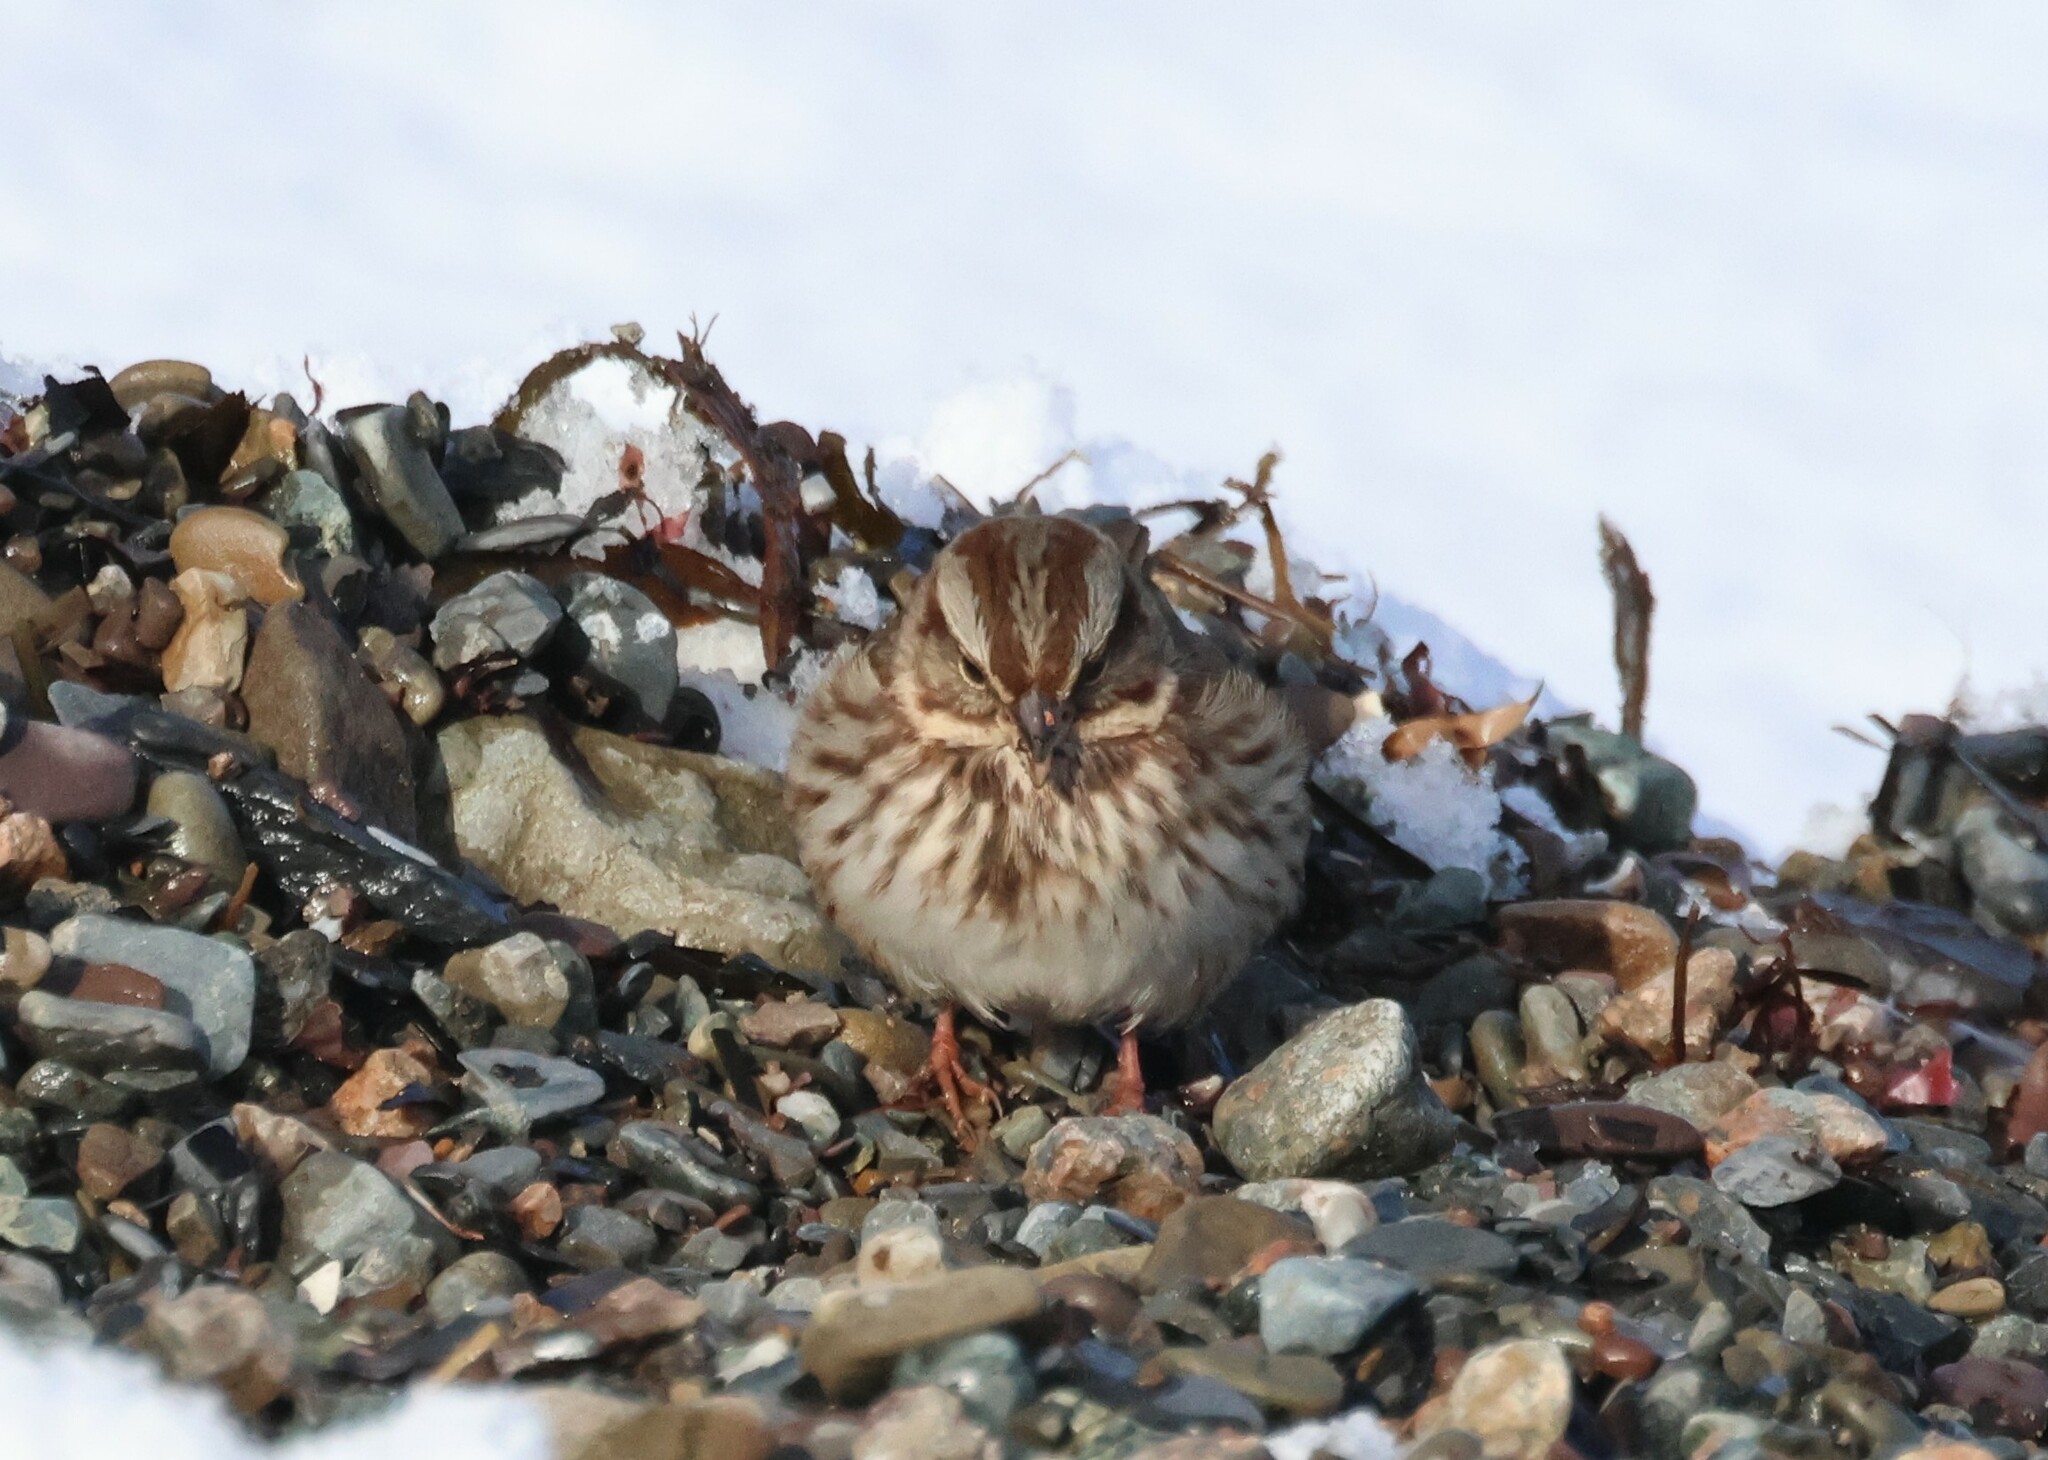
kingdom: Animalia
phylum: Chordata
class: Aves
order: Passeriformes
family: Passerellidae
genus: Melospiza
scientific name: Melospiza melodia
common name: Song sparrow
